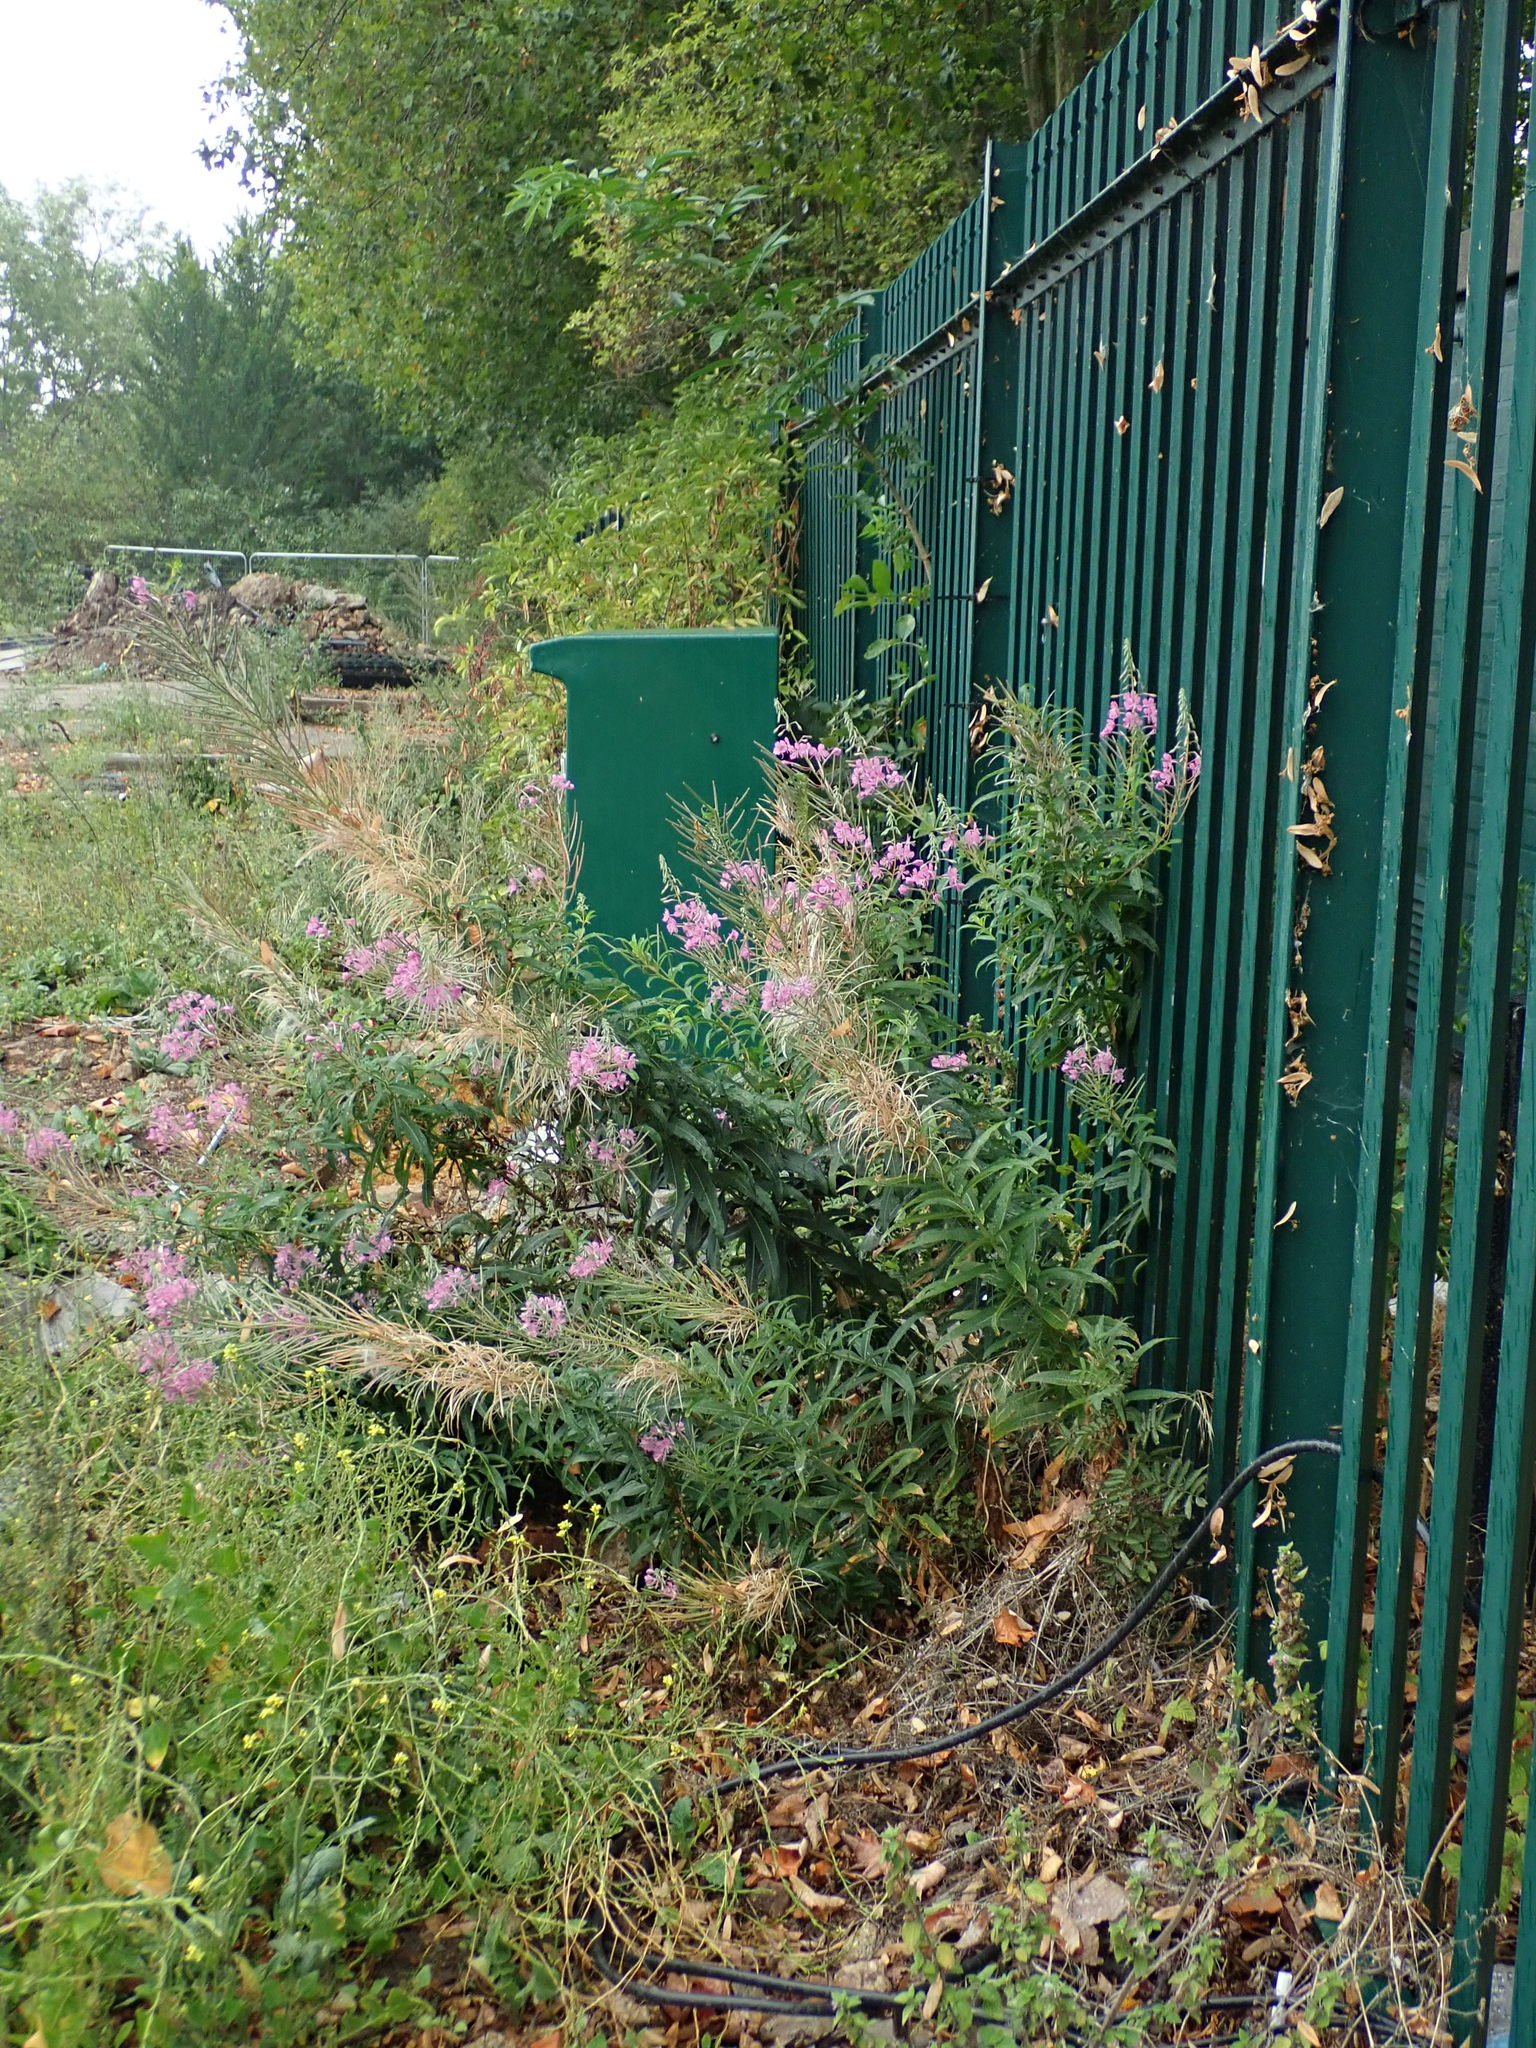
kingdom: Plantae
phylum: Tracheophyta
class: Magnoliopsida
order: Myrtales
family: Onagraceae
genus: Chamaenerion
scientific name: Chamaenerion angustifolium
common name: Fireweed
